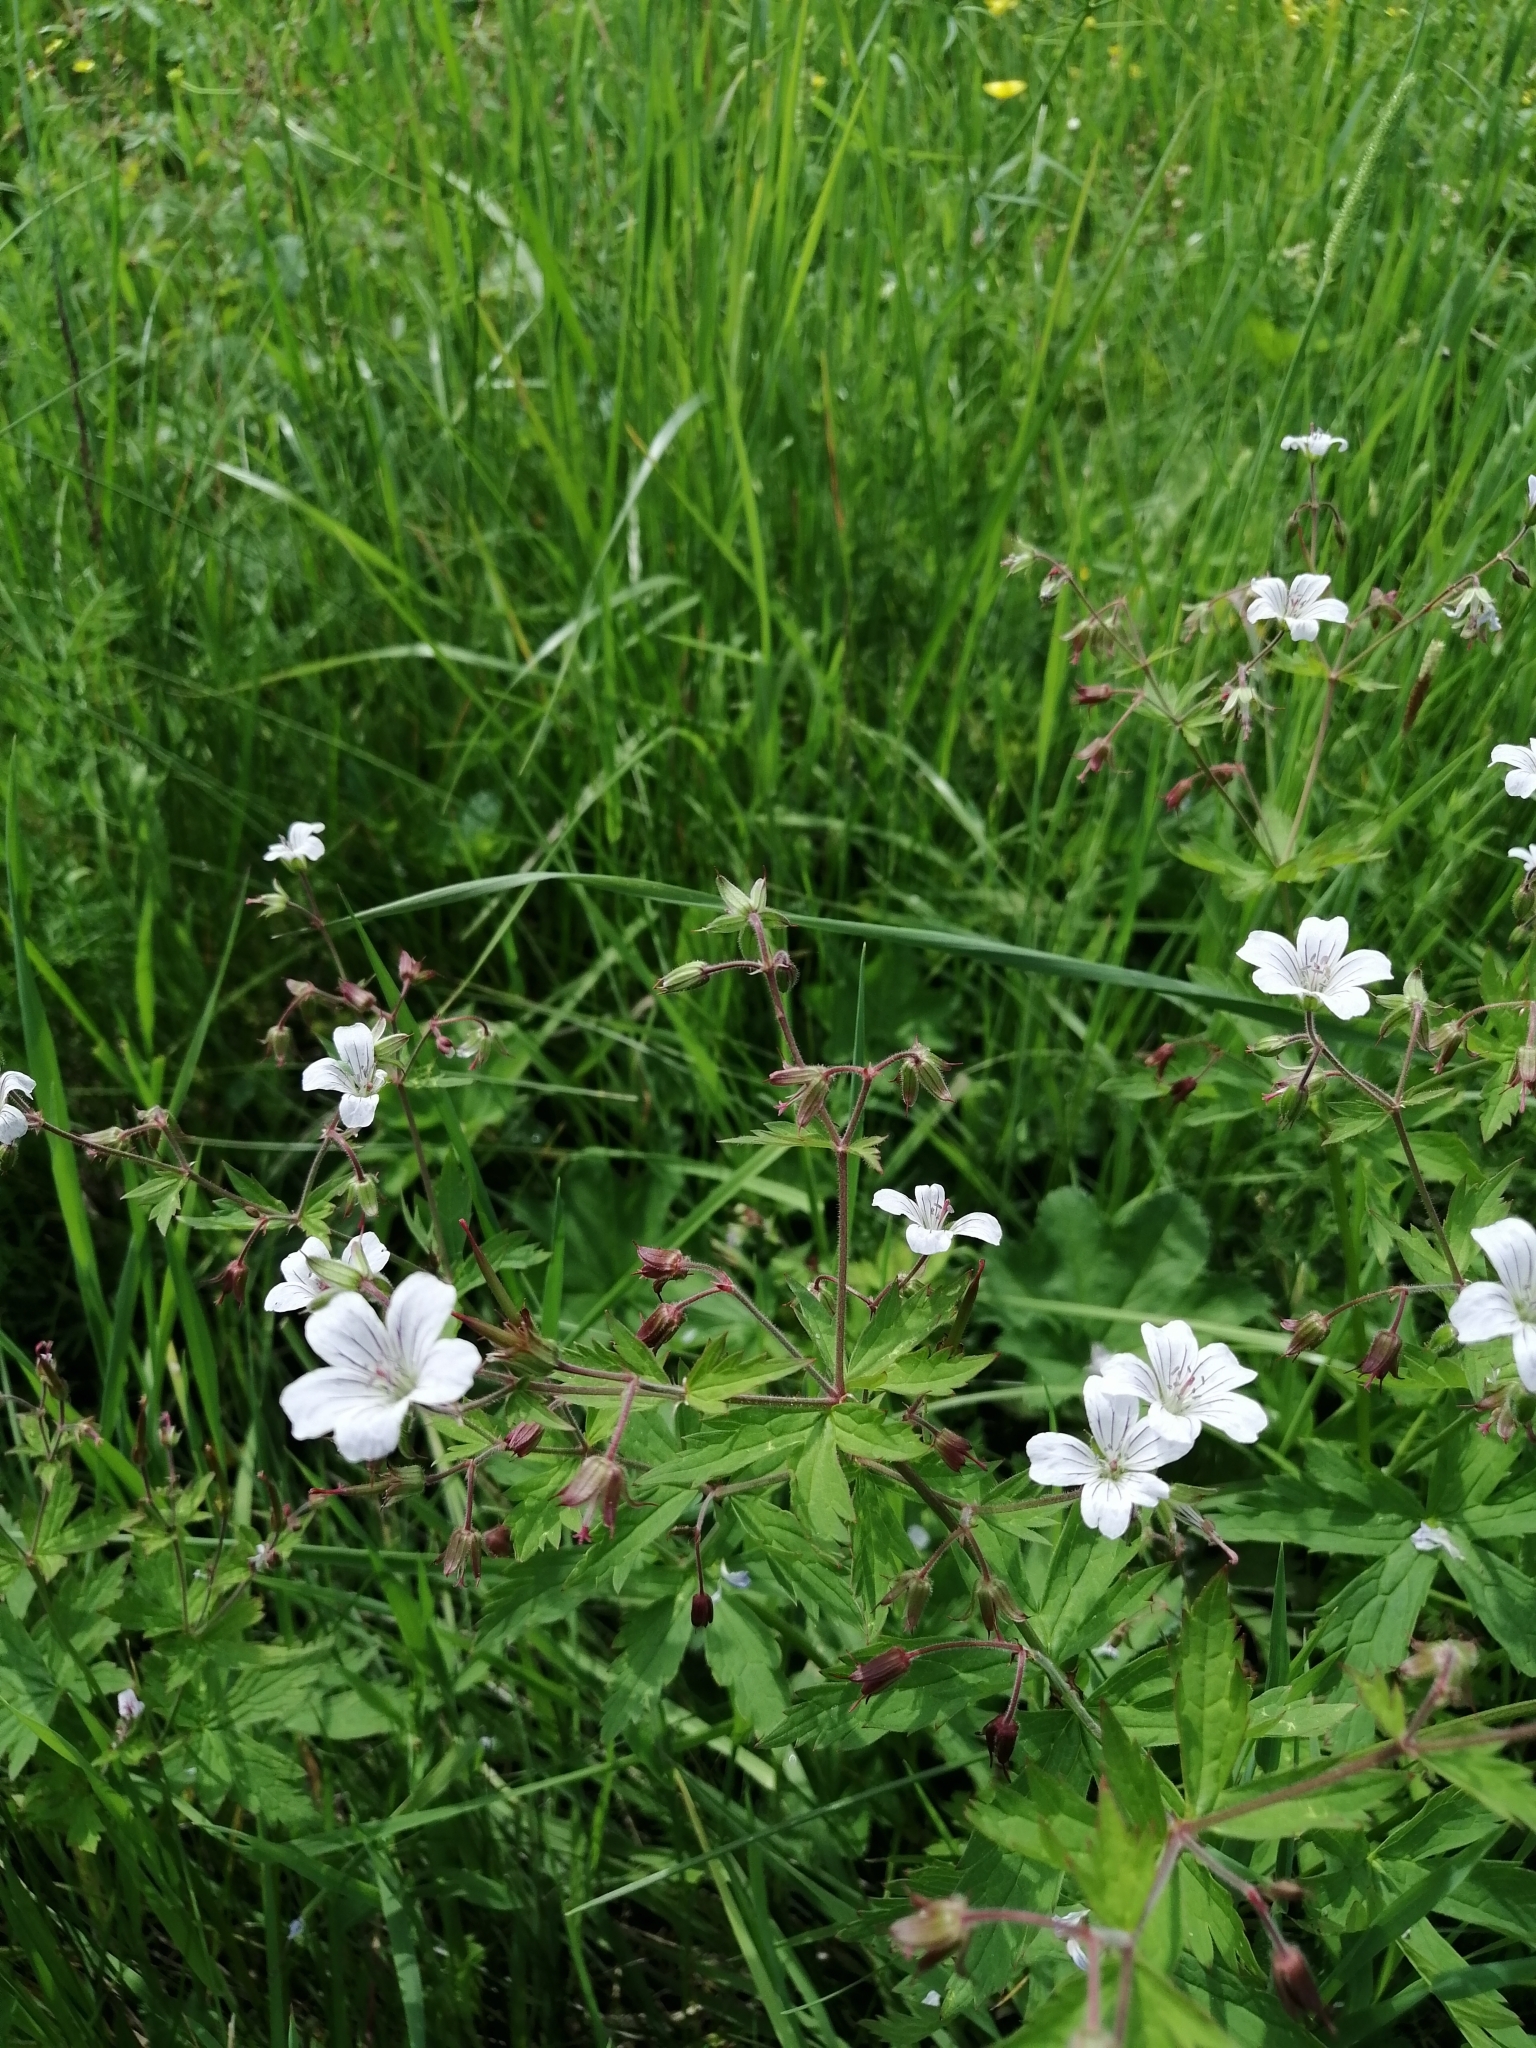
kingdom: Plantae
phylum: Tracheophyta
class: Magnoliopsida
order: Geraniales
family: Geraniaceae
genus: Geranium
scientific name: Geranium sylvaticum
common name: Wood crane's-bill
